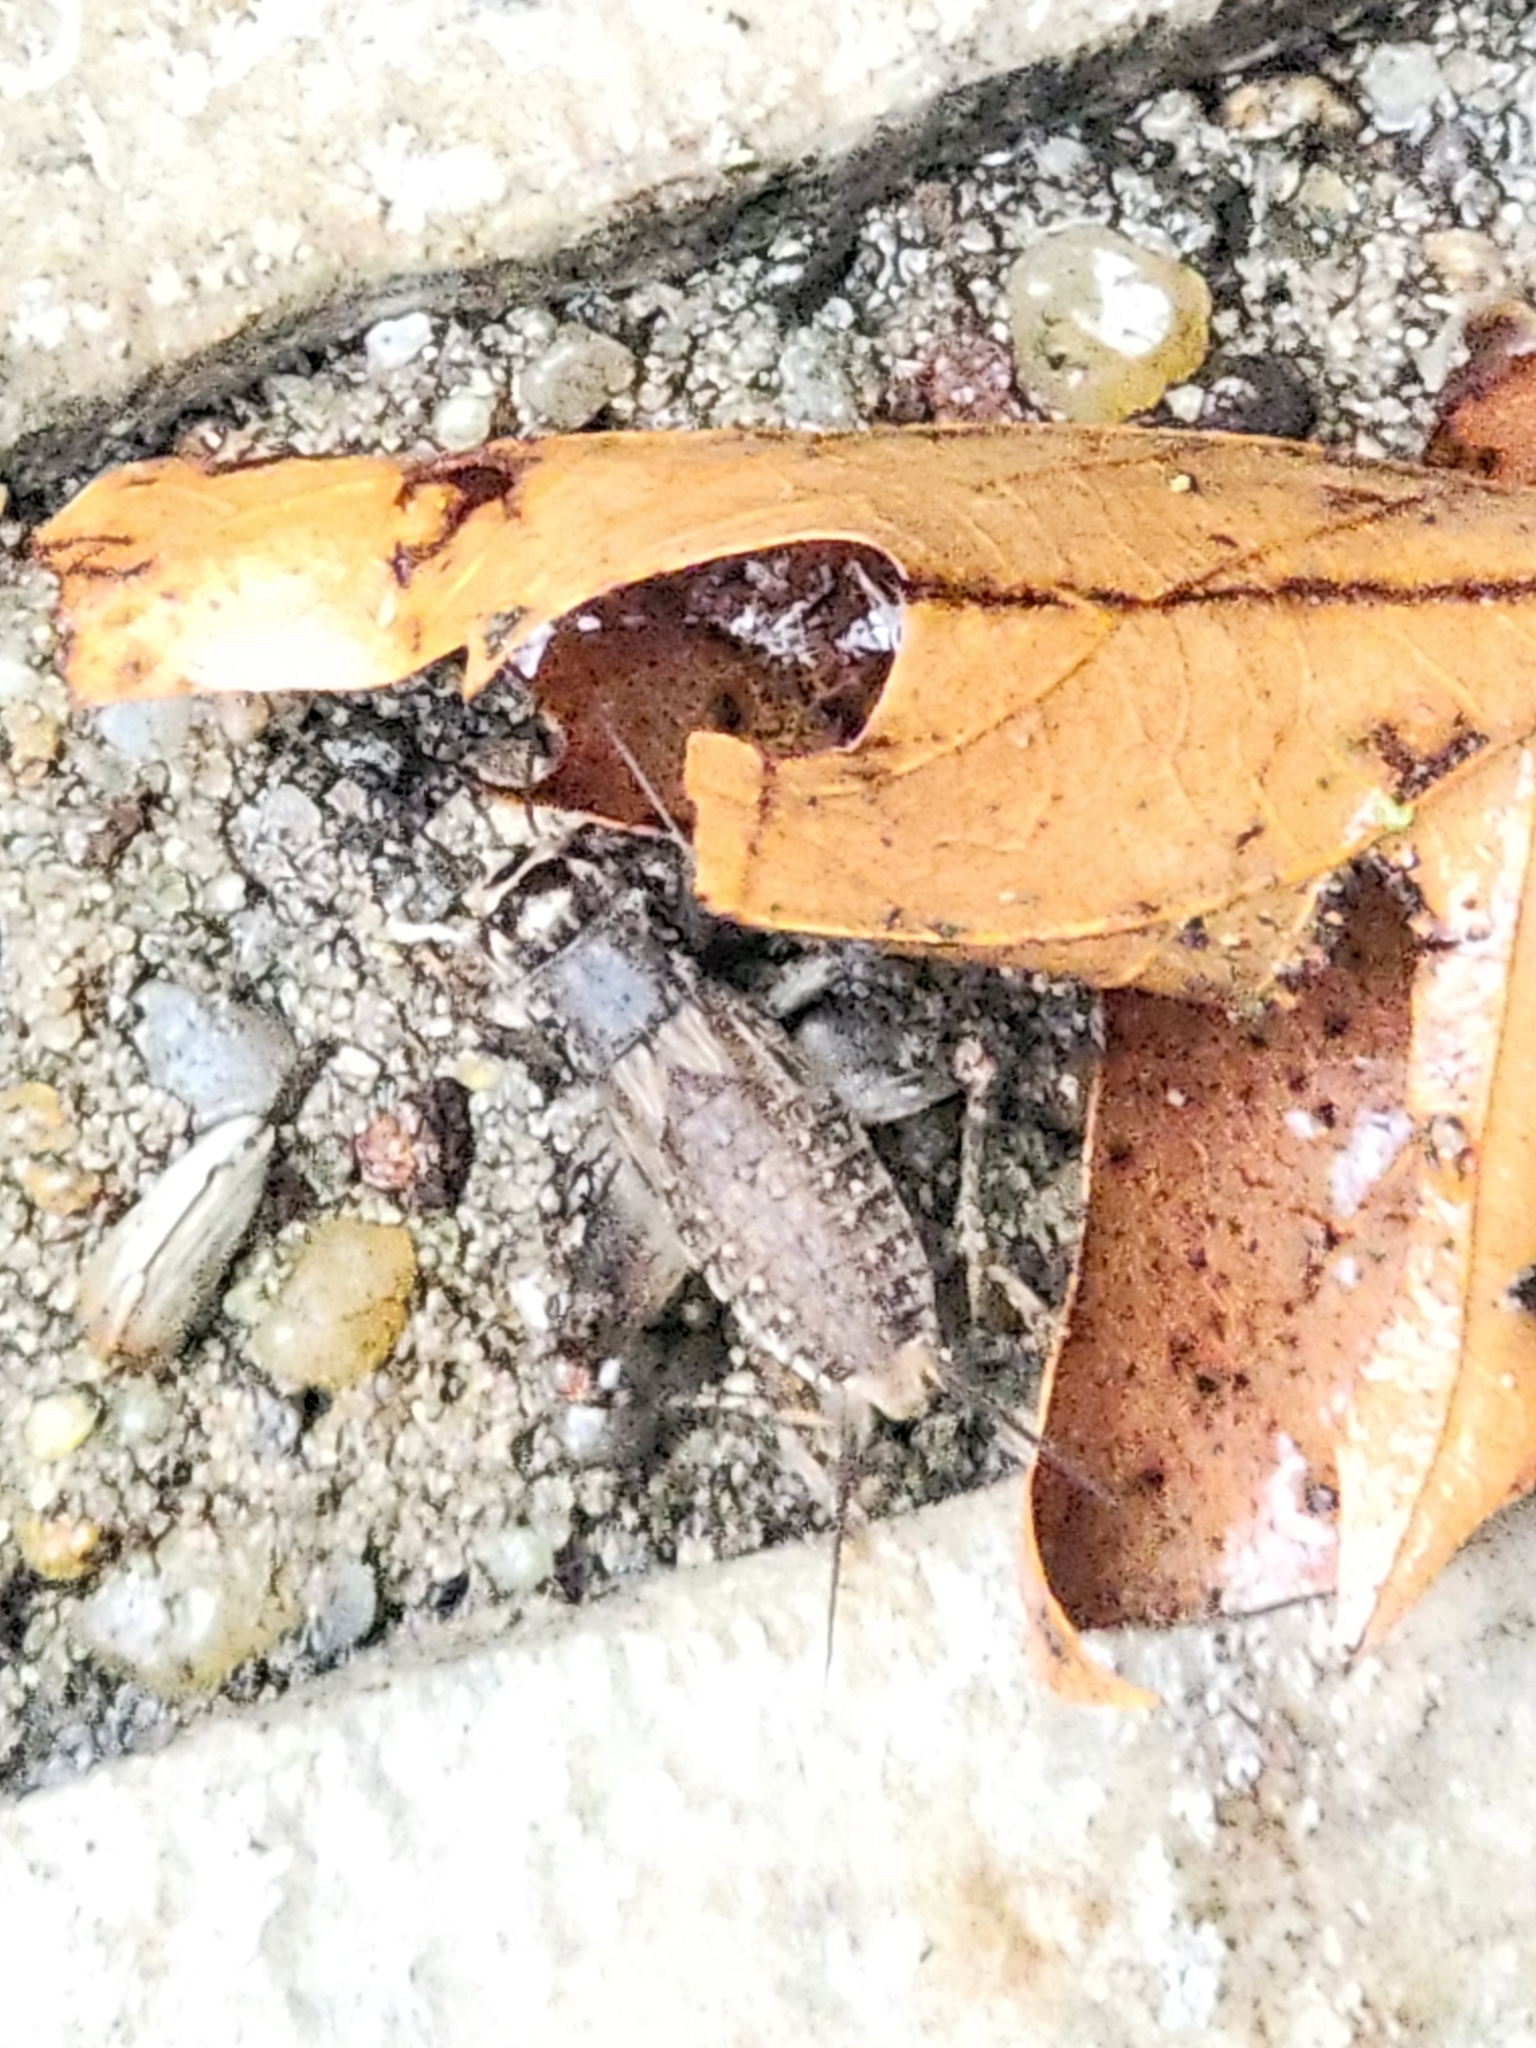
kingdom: Animalia
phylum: Arthropoda
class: Insecta
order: Orthoptera
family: Gryllidae
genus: Velarifictorus
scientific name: Velarifictorus micado
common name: Japanese burrowing cricket
